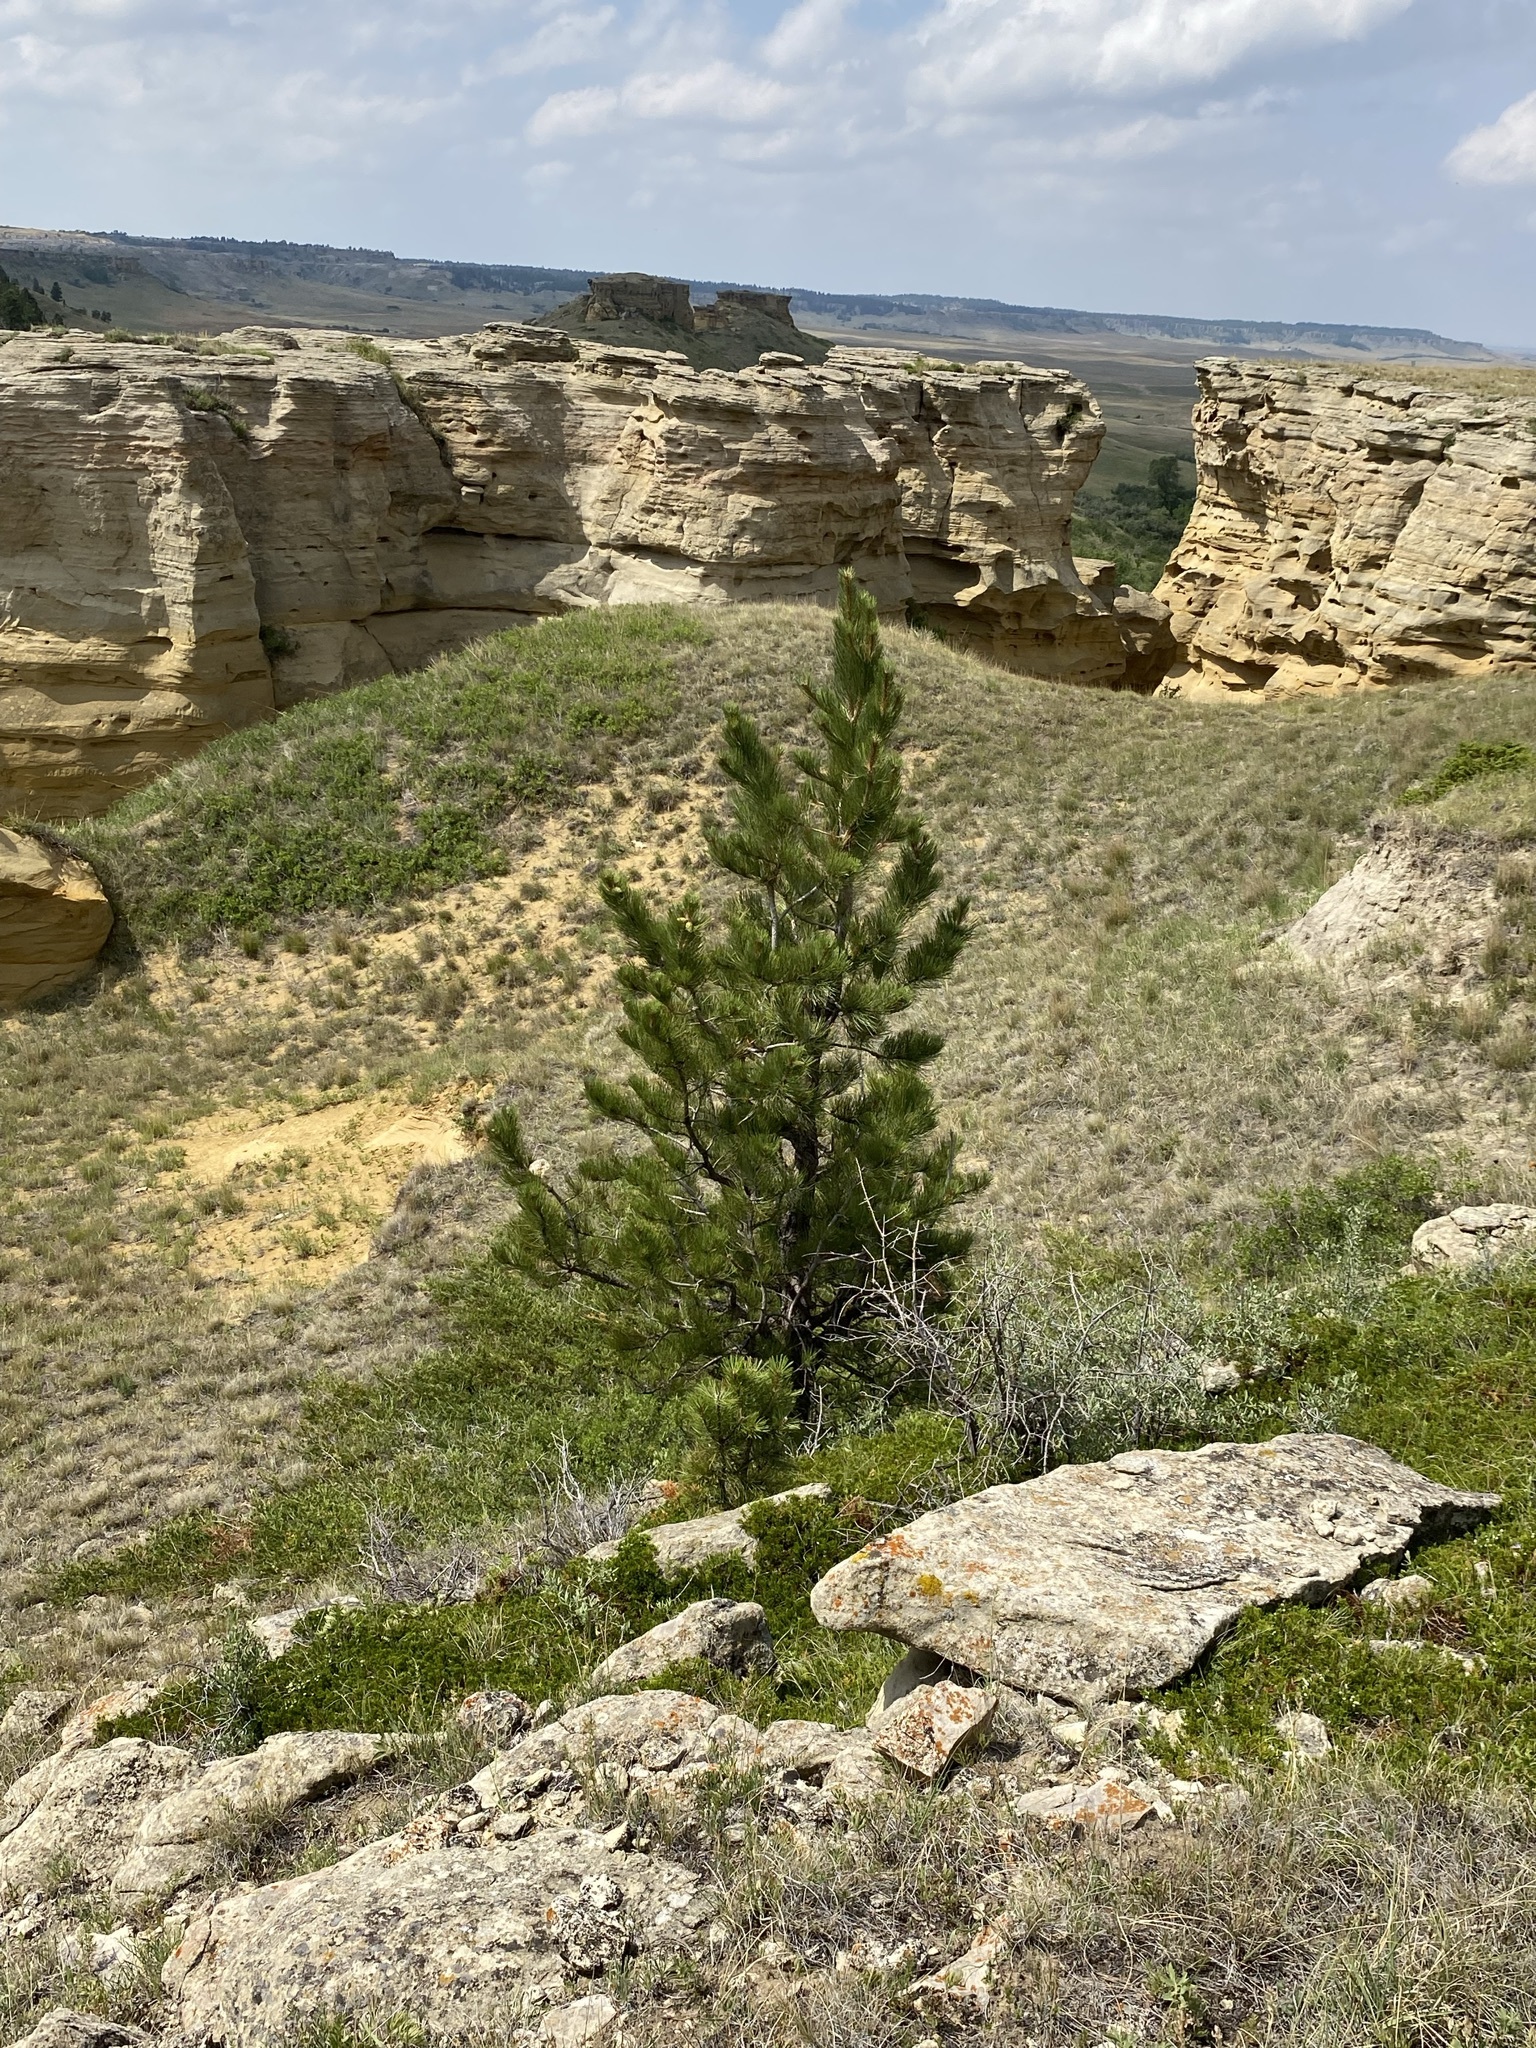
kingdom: Plantae
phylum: Tracheophyta
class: Pinopsida
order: Pinales
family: Pinaceae
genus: Pinus
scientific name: Pinus ponderosa
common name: Western yellow-pine
